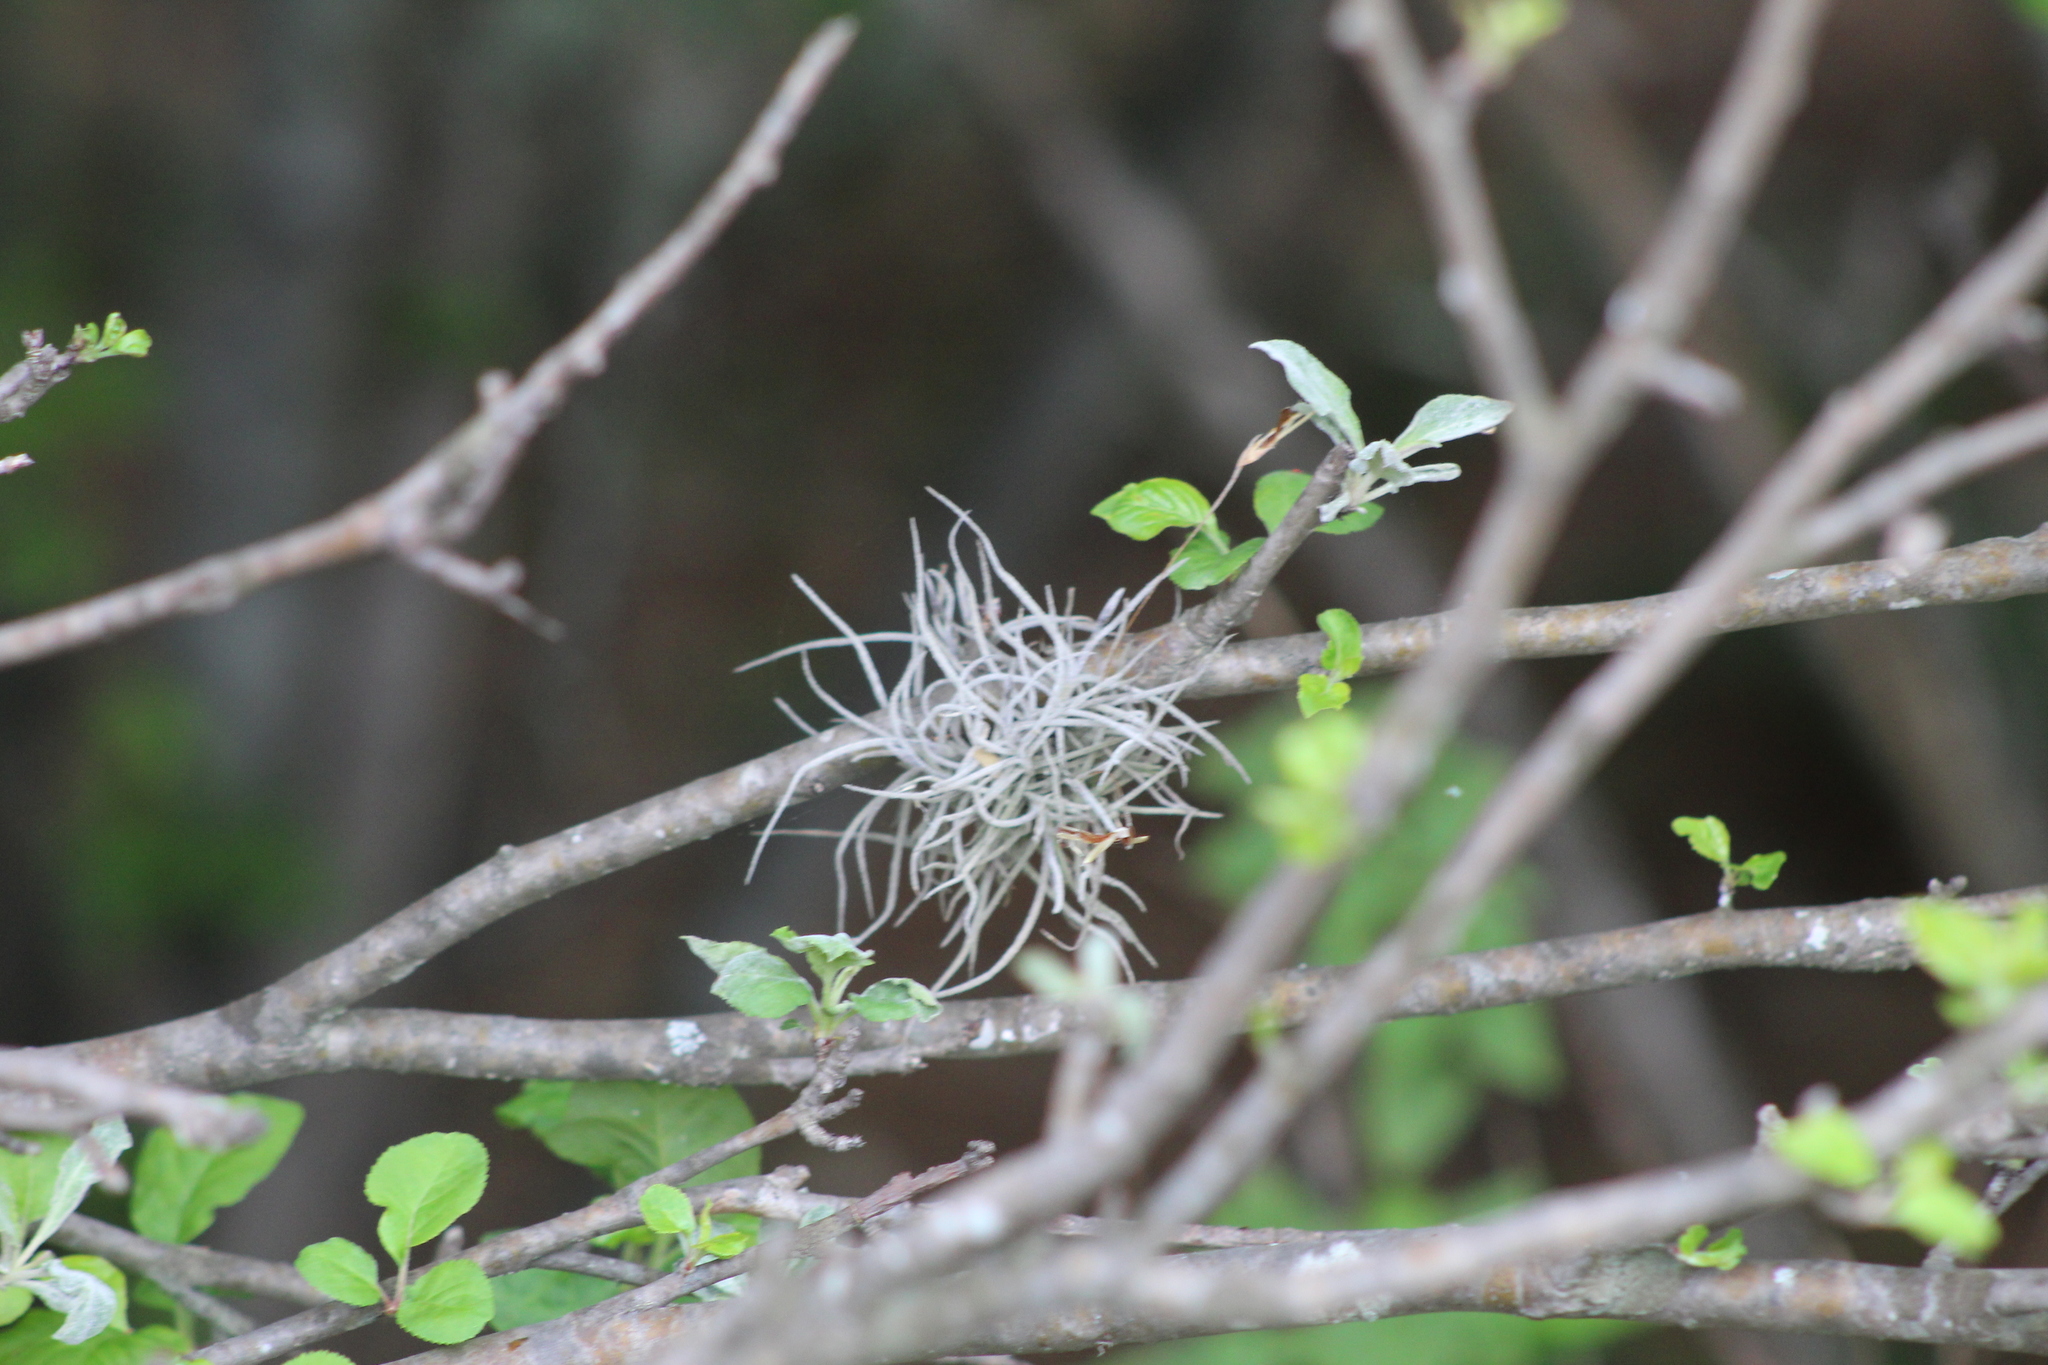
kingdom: Plantae
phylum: Tracheophyta
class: Liliopsida
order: Poales
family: Bromeliaceae
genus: Tillandsia
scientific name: Tillandsia recurvata
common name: Small ballmoss
